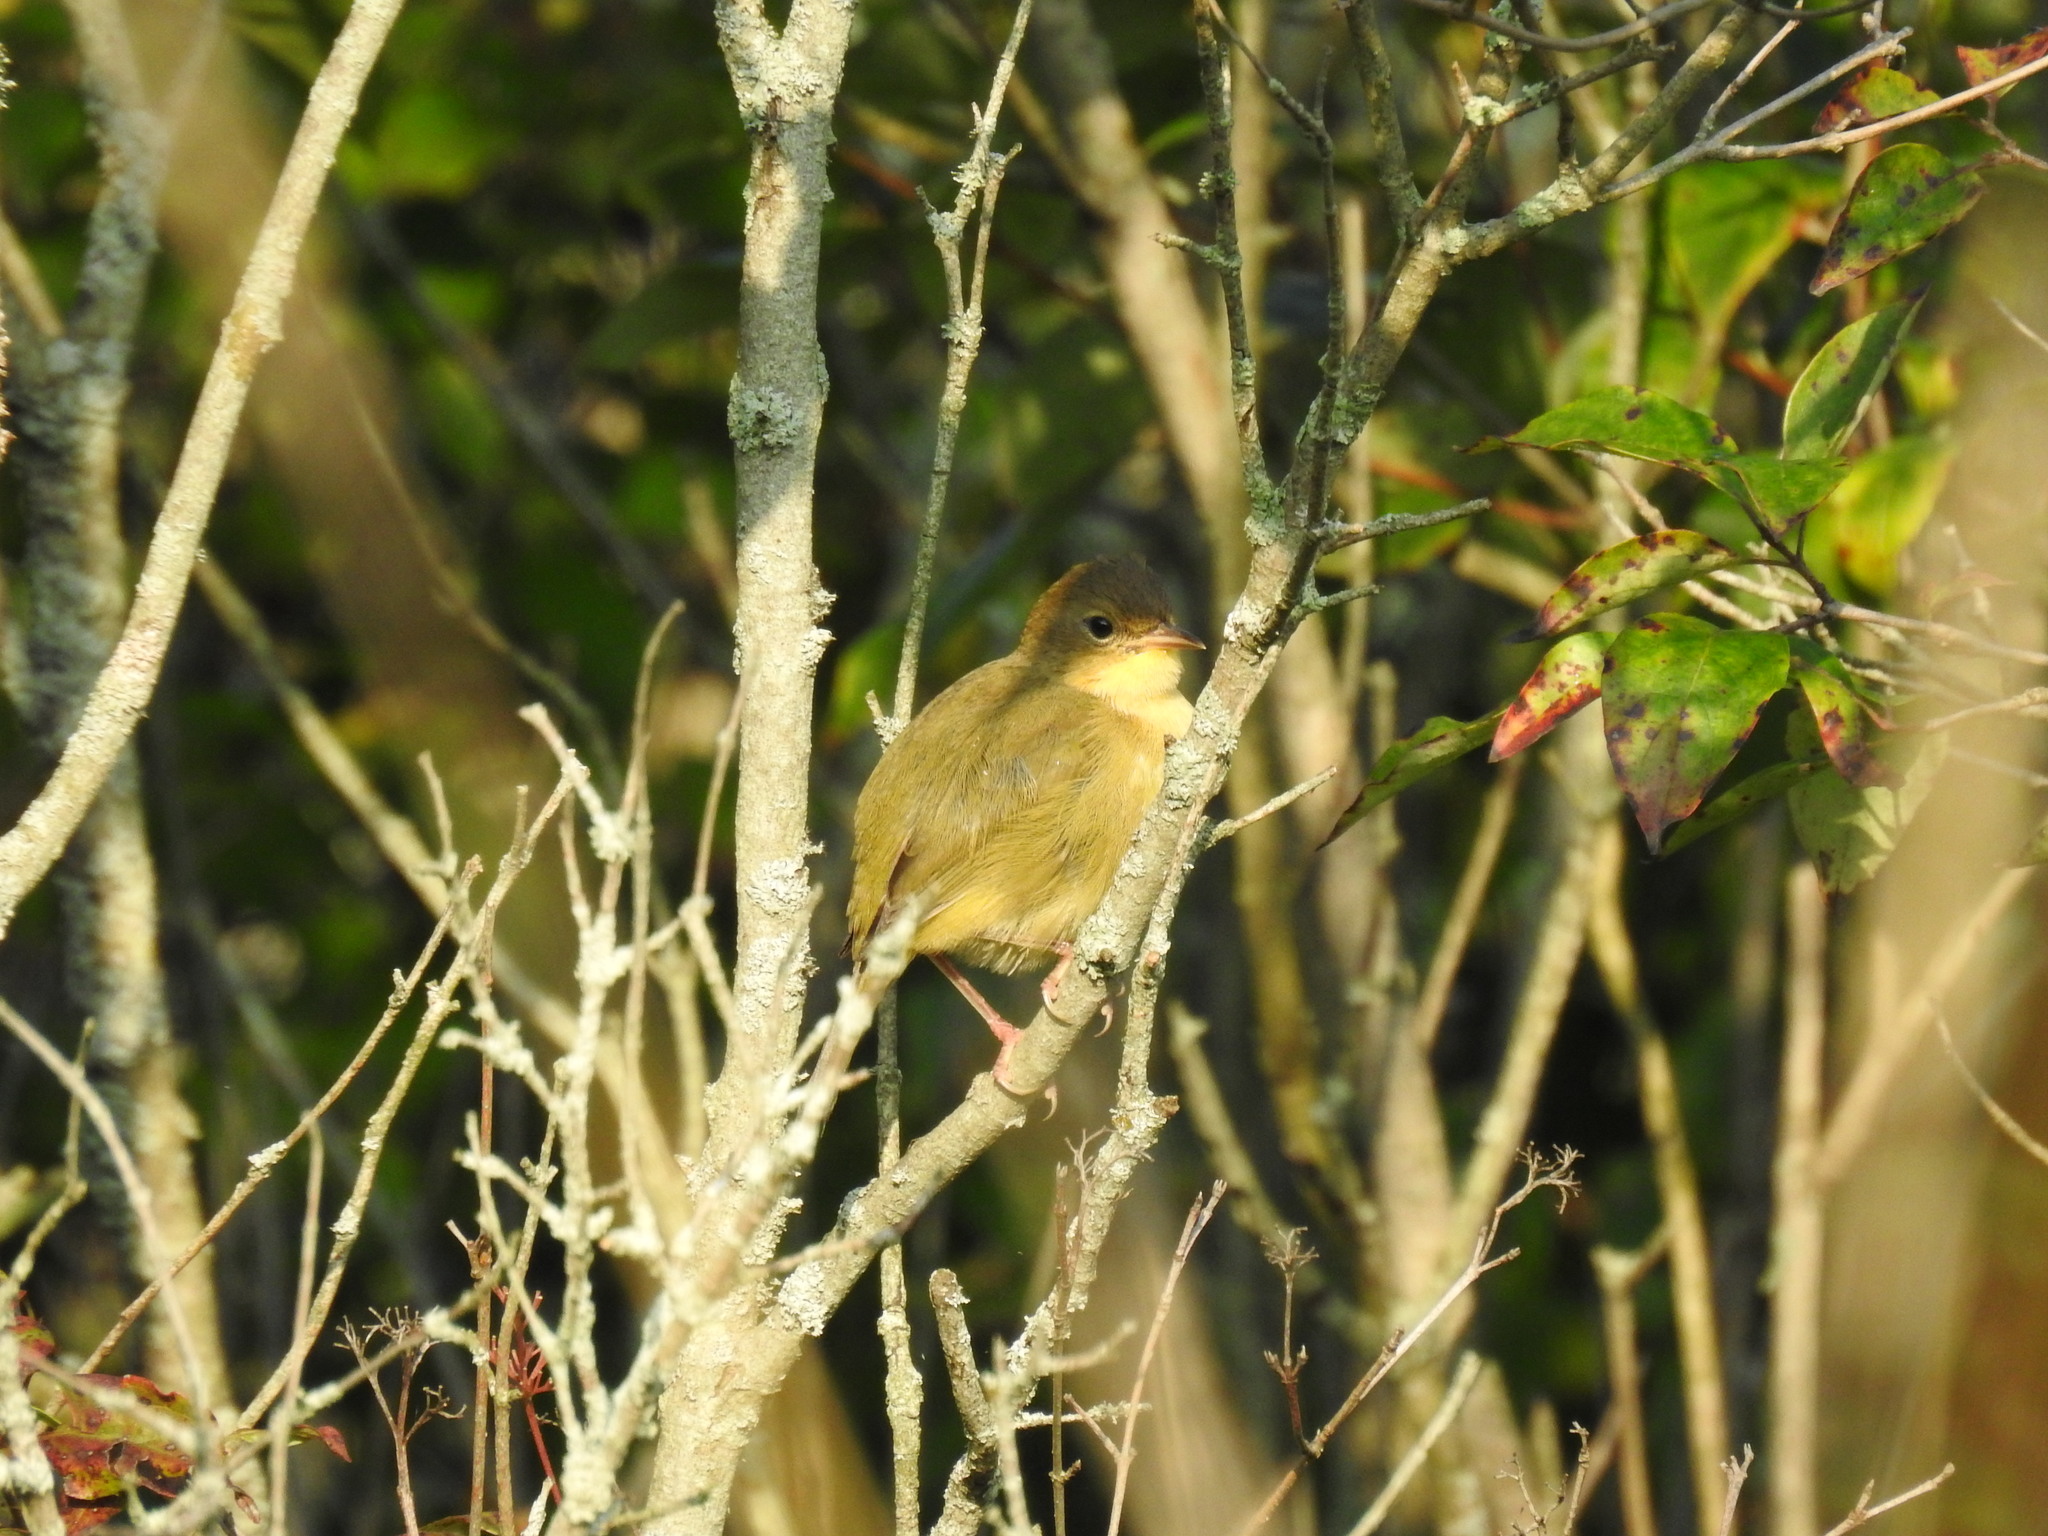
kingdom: Animalia
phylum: Chordata
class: Aves
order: Passeriformes
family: Parulidae
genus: Geothlypis
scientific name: Geothlypis trichas
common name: Common yellowthroat
